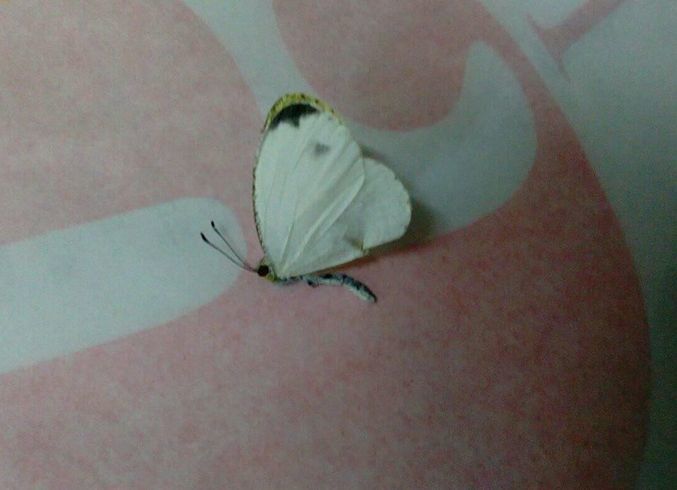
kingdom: Animalia
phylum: Arthropoda
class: Insecta
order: Lepidoptera
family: Pieridae
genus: Leptosia
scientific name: Leptosia nina
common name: Psyche
